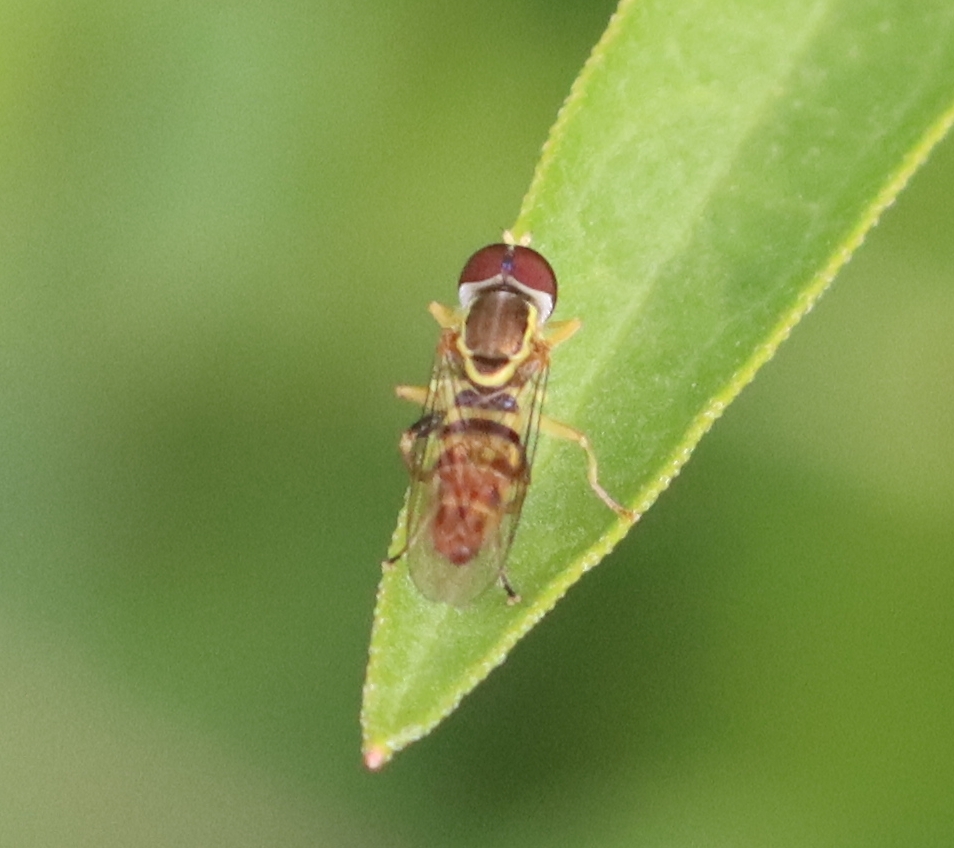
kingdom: Animalia
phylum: Arthropoda
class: Insecta
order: Diptera
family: Syrphidae
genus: Toxomerus
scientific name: Toxomerus geminatus
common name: Eastern calligrapher
